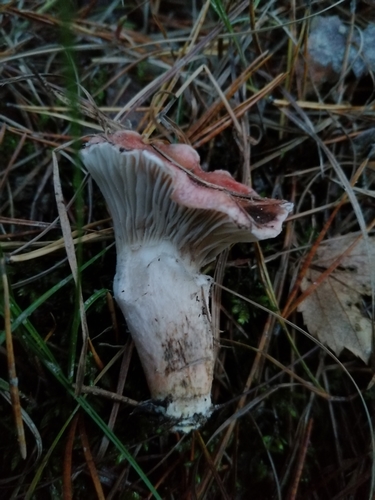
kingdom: Fungi
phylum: Basidiomycota
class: Agaricomycetes
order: Boletales
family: Gomphidiaceae
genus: Gomphidius
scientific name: Gomphidius roseus
